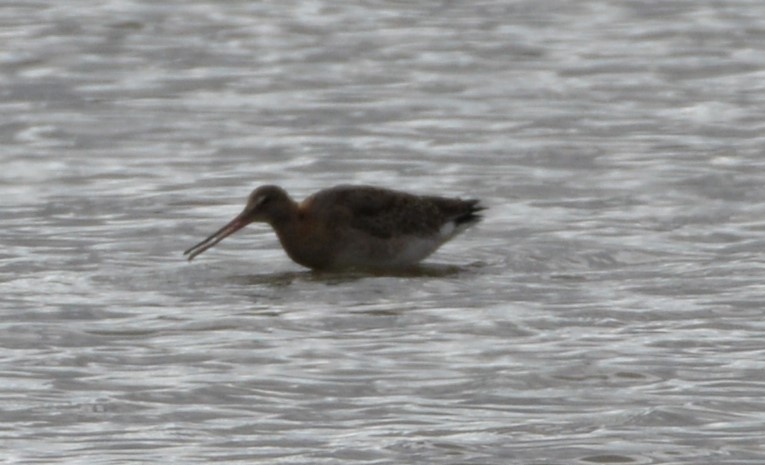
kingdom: Animalia
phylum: Chordata
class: Aves
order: Charadriiformes
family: Scolopacidae
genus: Limosa
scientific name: Limosa limosa
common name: Black-tailed godwit
